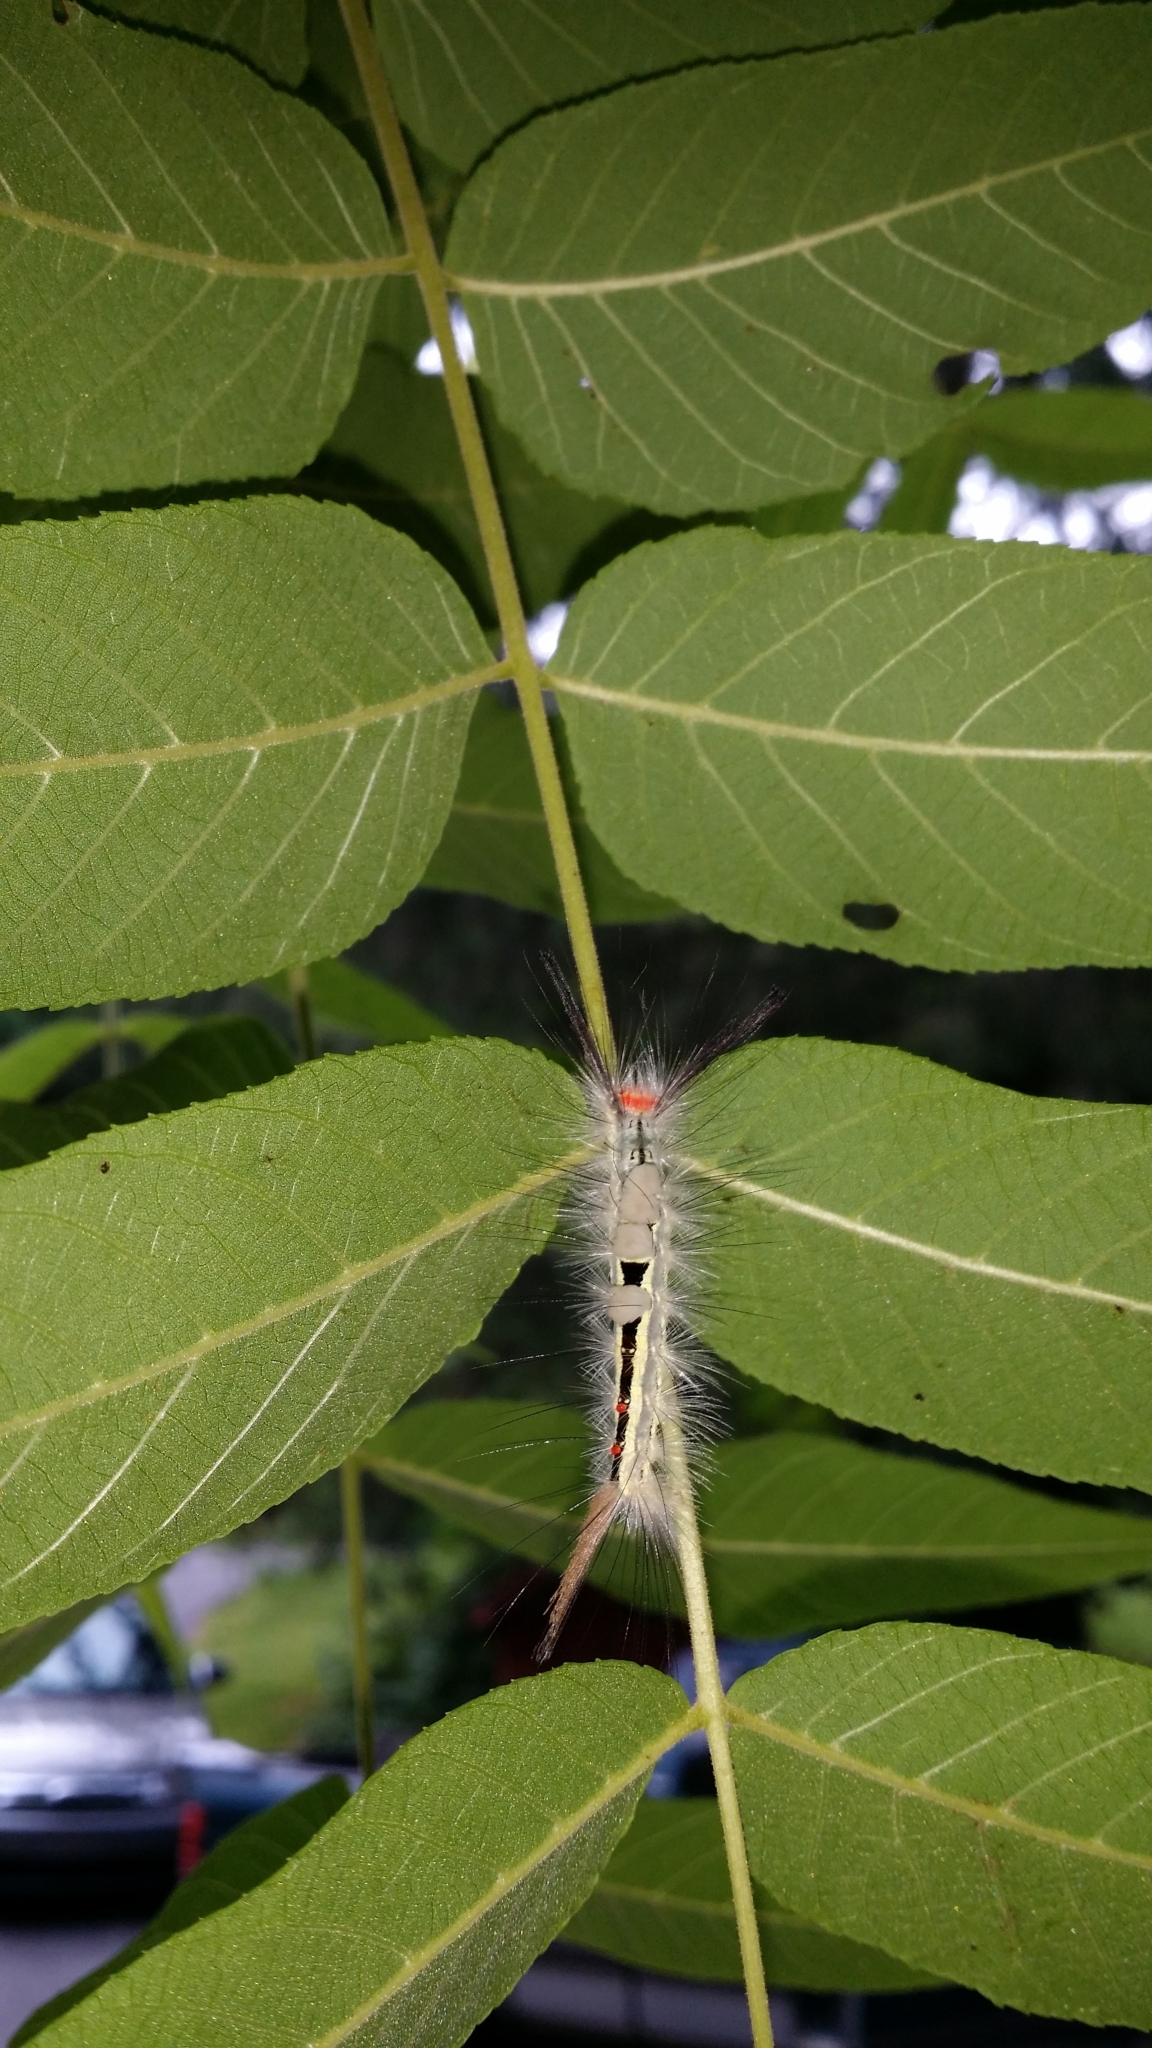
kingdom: Animalia
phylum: Arthropoda
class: Insecta
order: Lepidoptera
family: Erebidae
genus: Orgyia
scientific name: Orgyia leucostigma
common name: White-marked tussock moth
